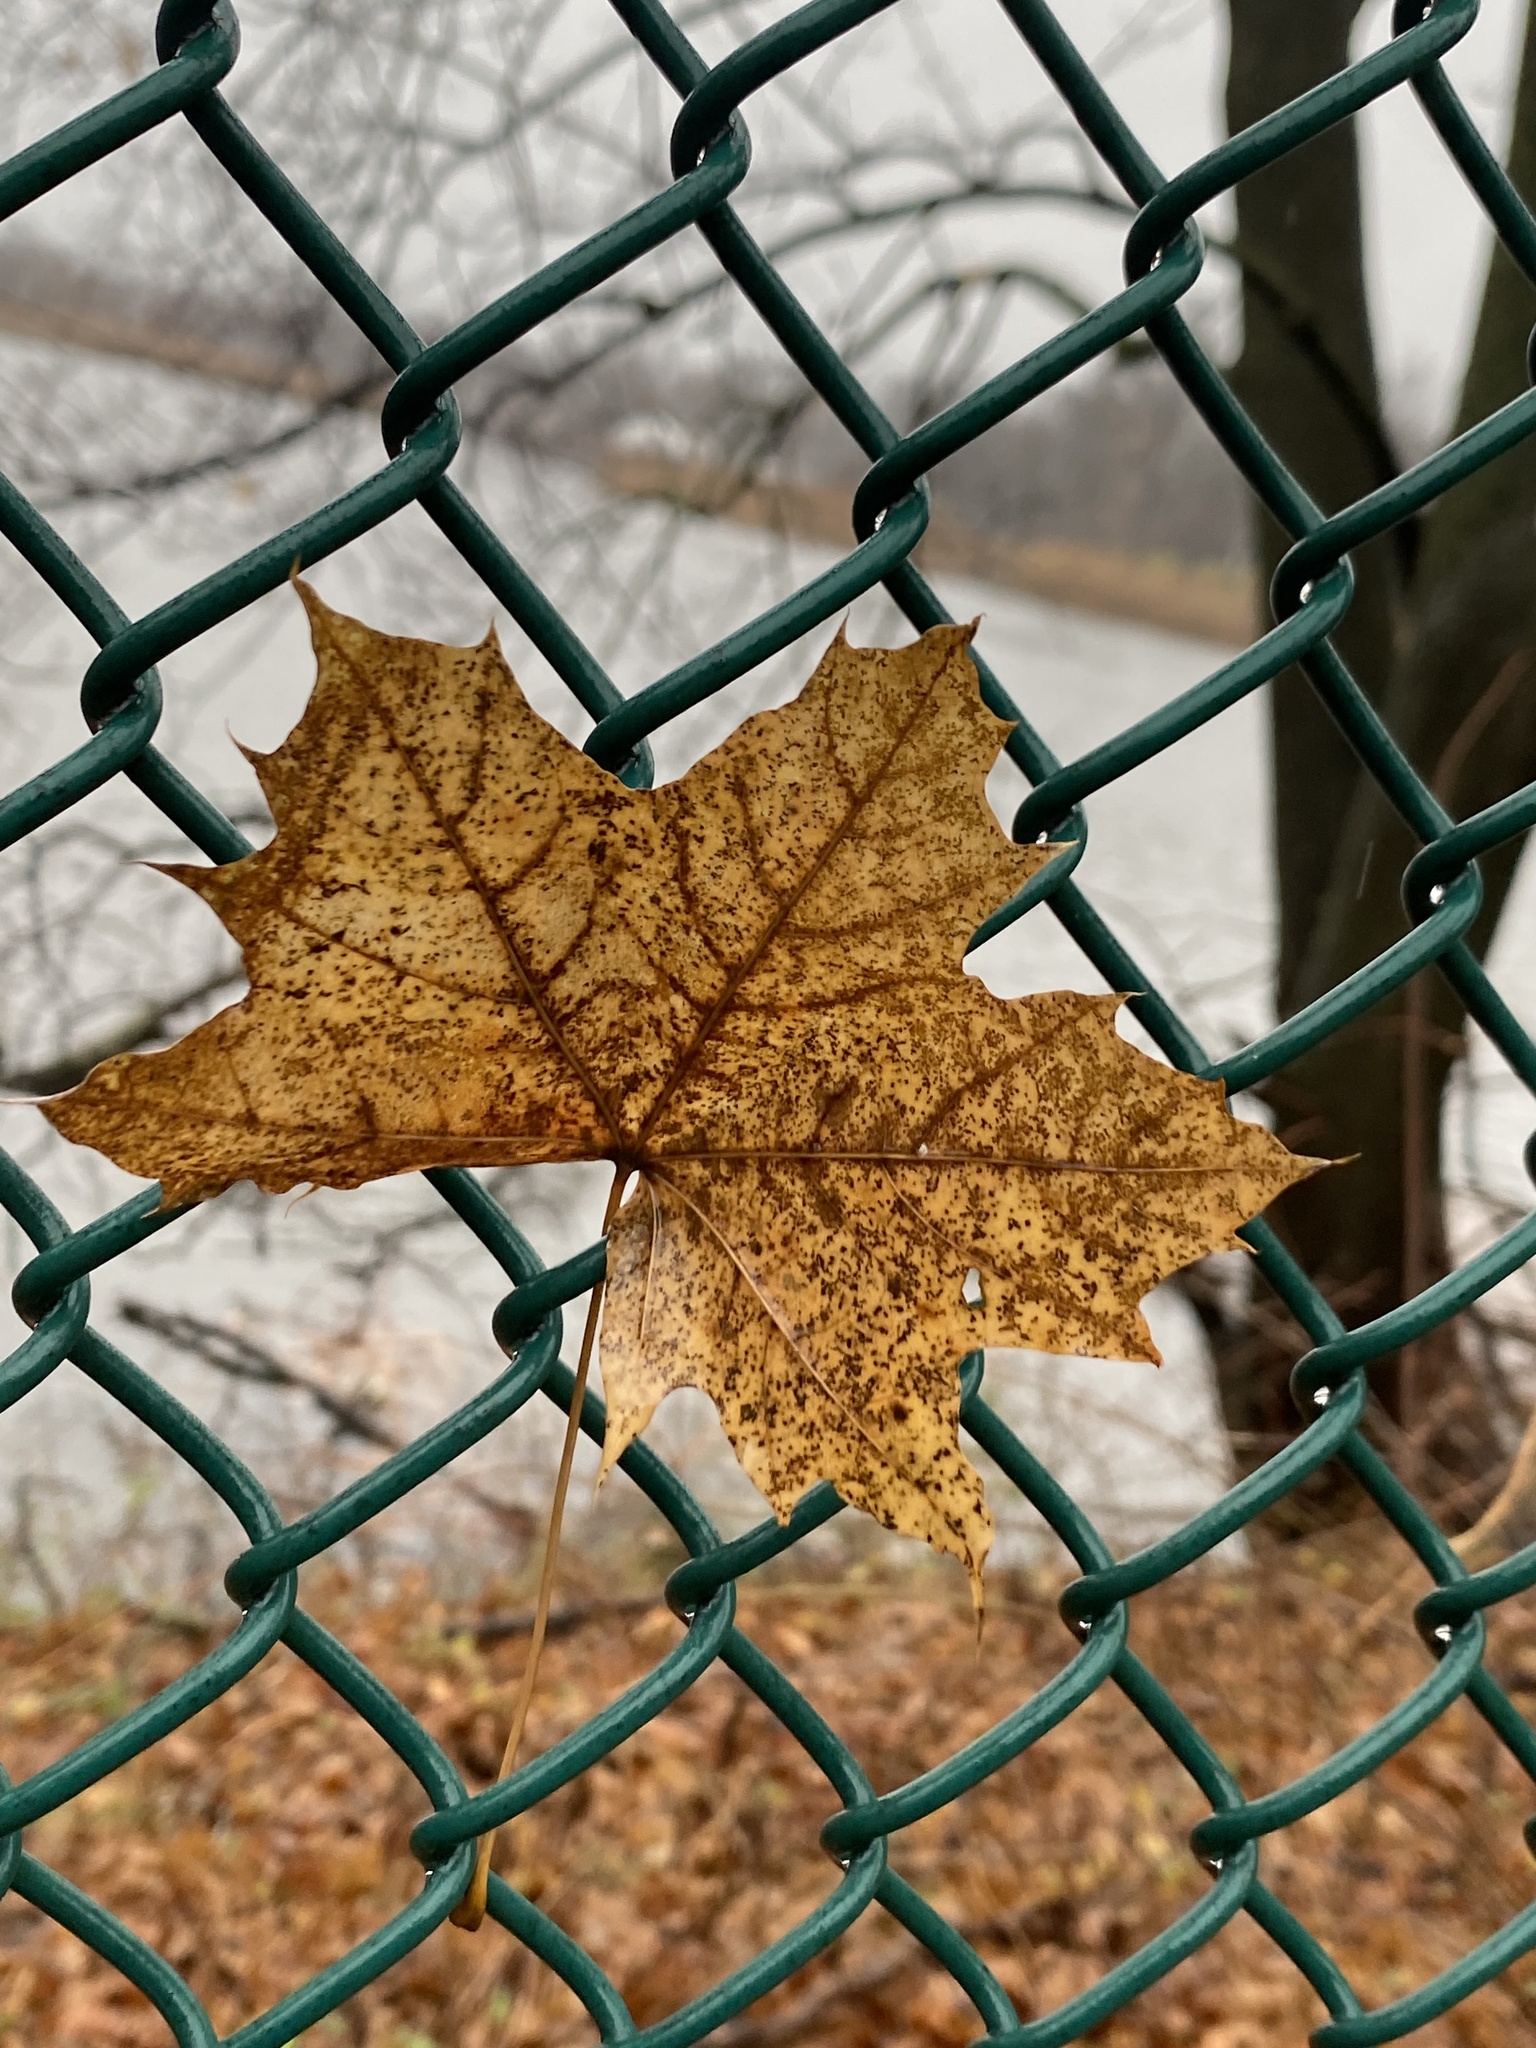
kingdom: Plantae
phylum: Tracheophyta
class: Magnoliopsida
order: Sapindales
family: Sapindaceae
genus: Acer
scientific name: Acer platanoides
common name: Norway maple
